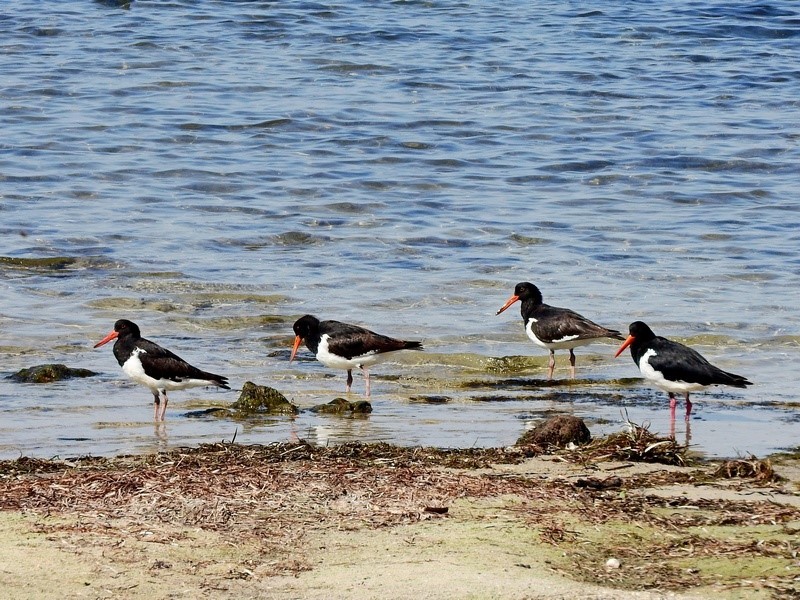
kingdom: Animalia
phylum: Chordata
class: Aves
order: Charadriiformes
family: Haematopodidae
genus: Haematopus
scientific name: Haematopus longirostris
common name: Pied oystercatcher
